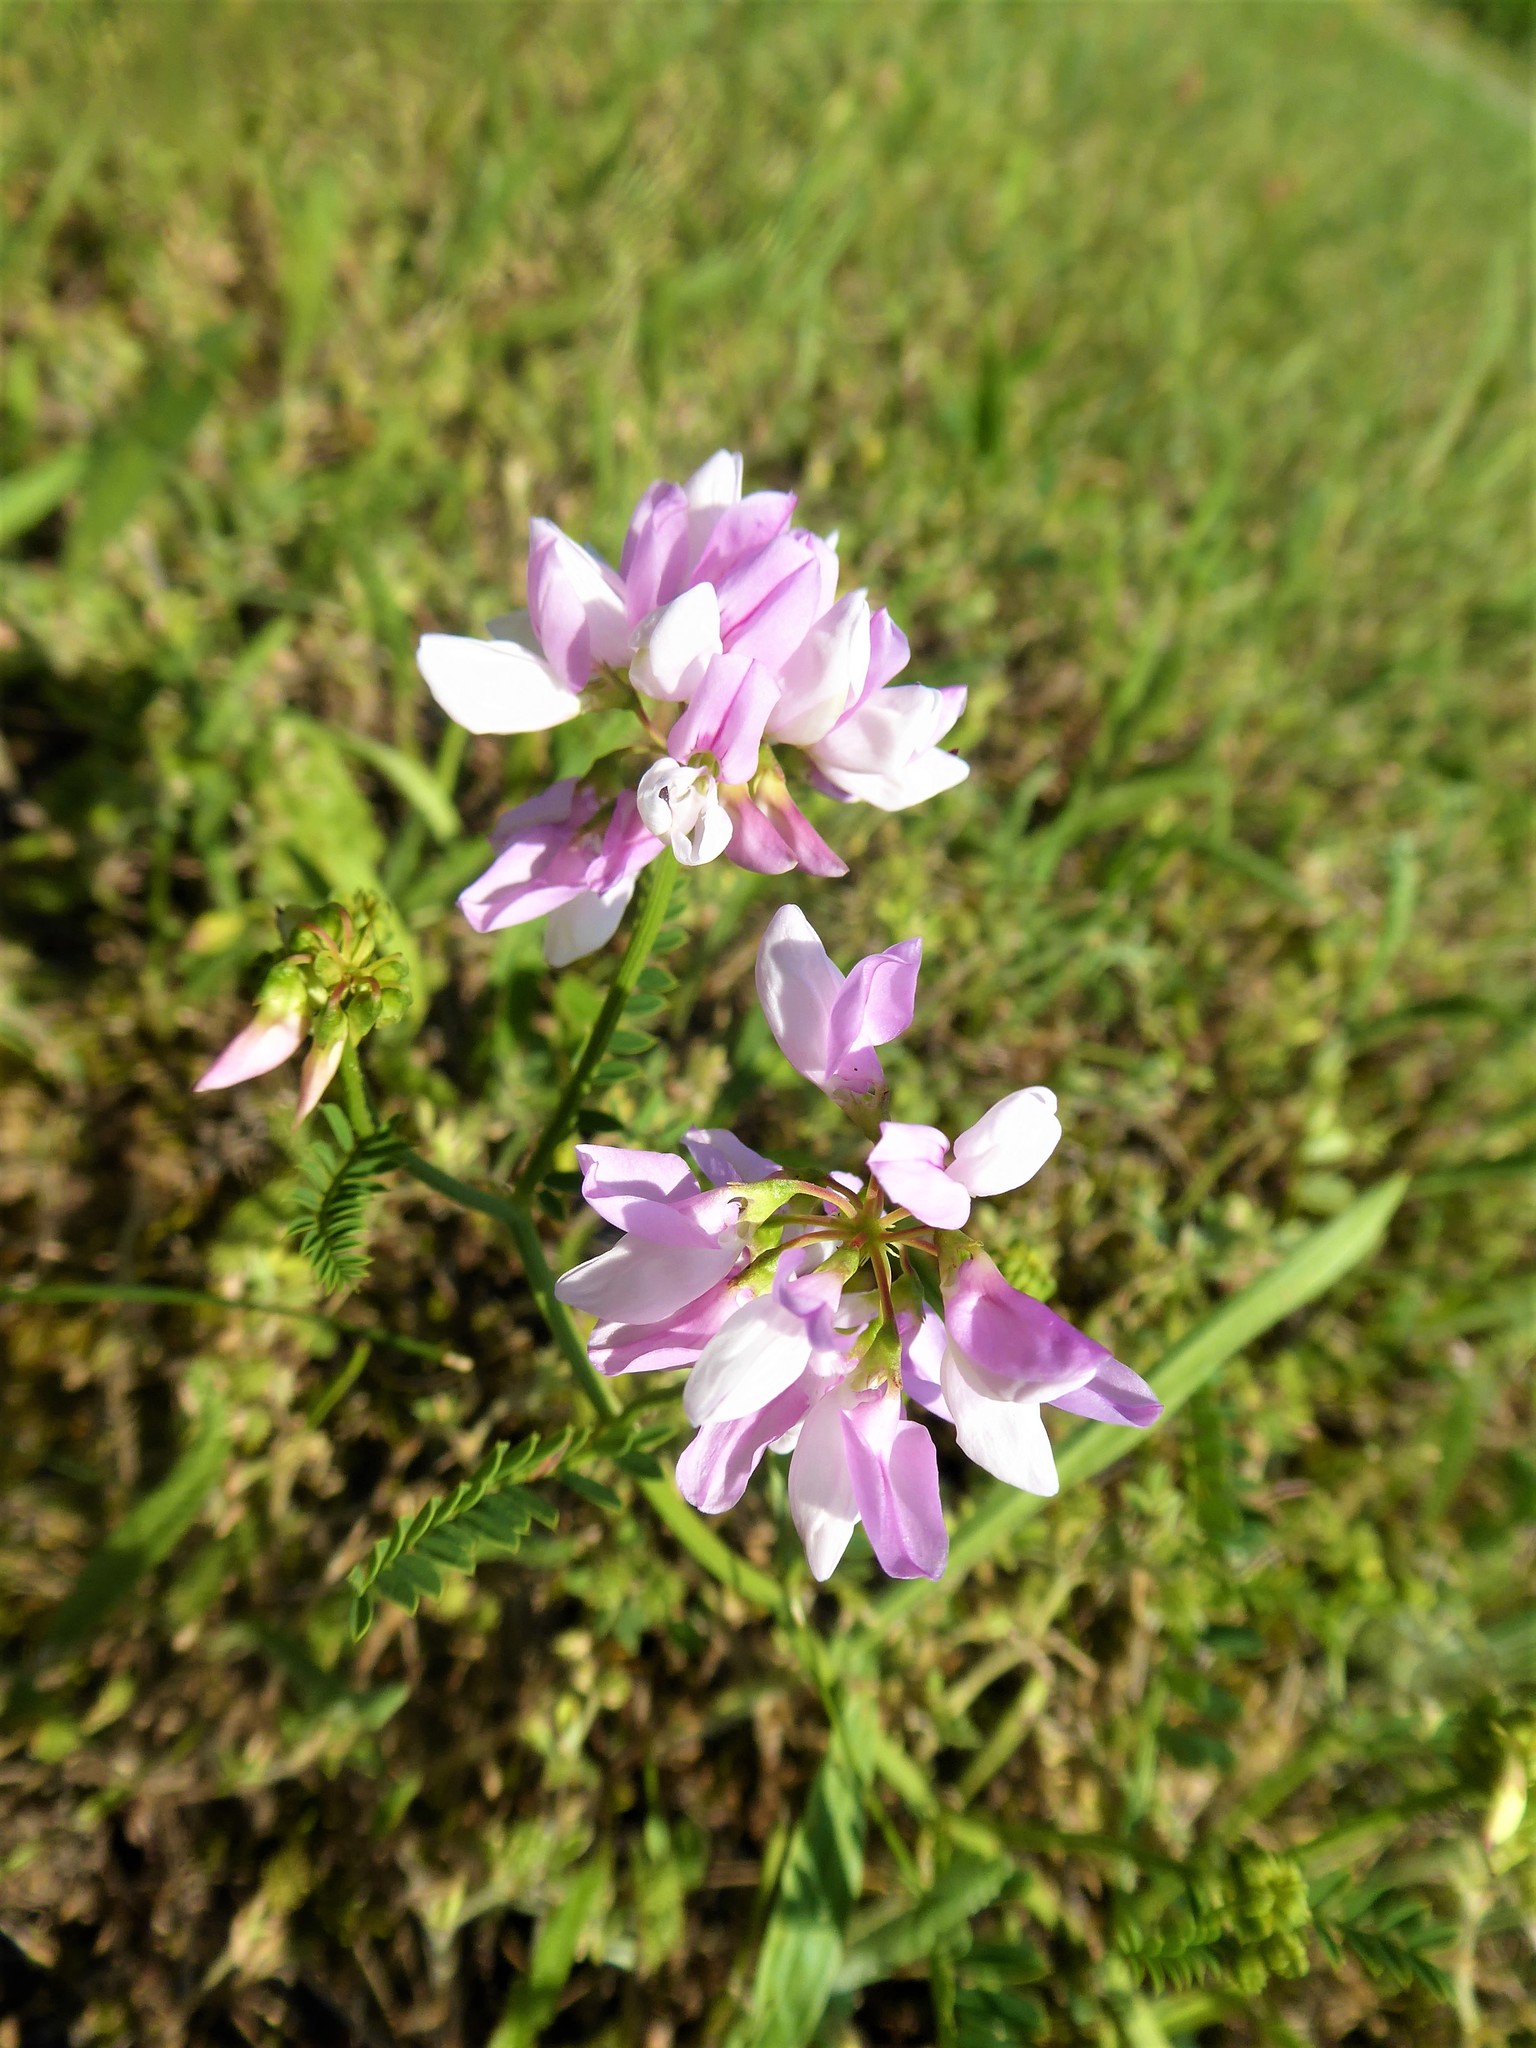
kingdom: Plantae
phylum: Tracheophyta
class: Magnoliopsida
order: Fabales
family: Fabaceae
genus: Coronilla
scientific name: Coronilla varia
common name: Crownvetch
